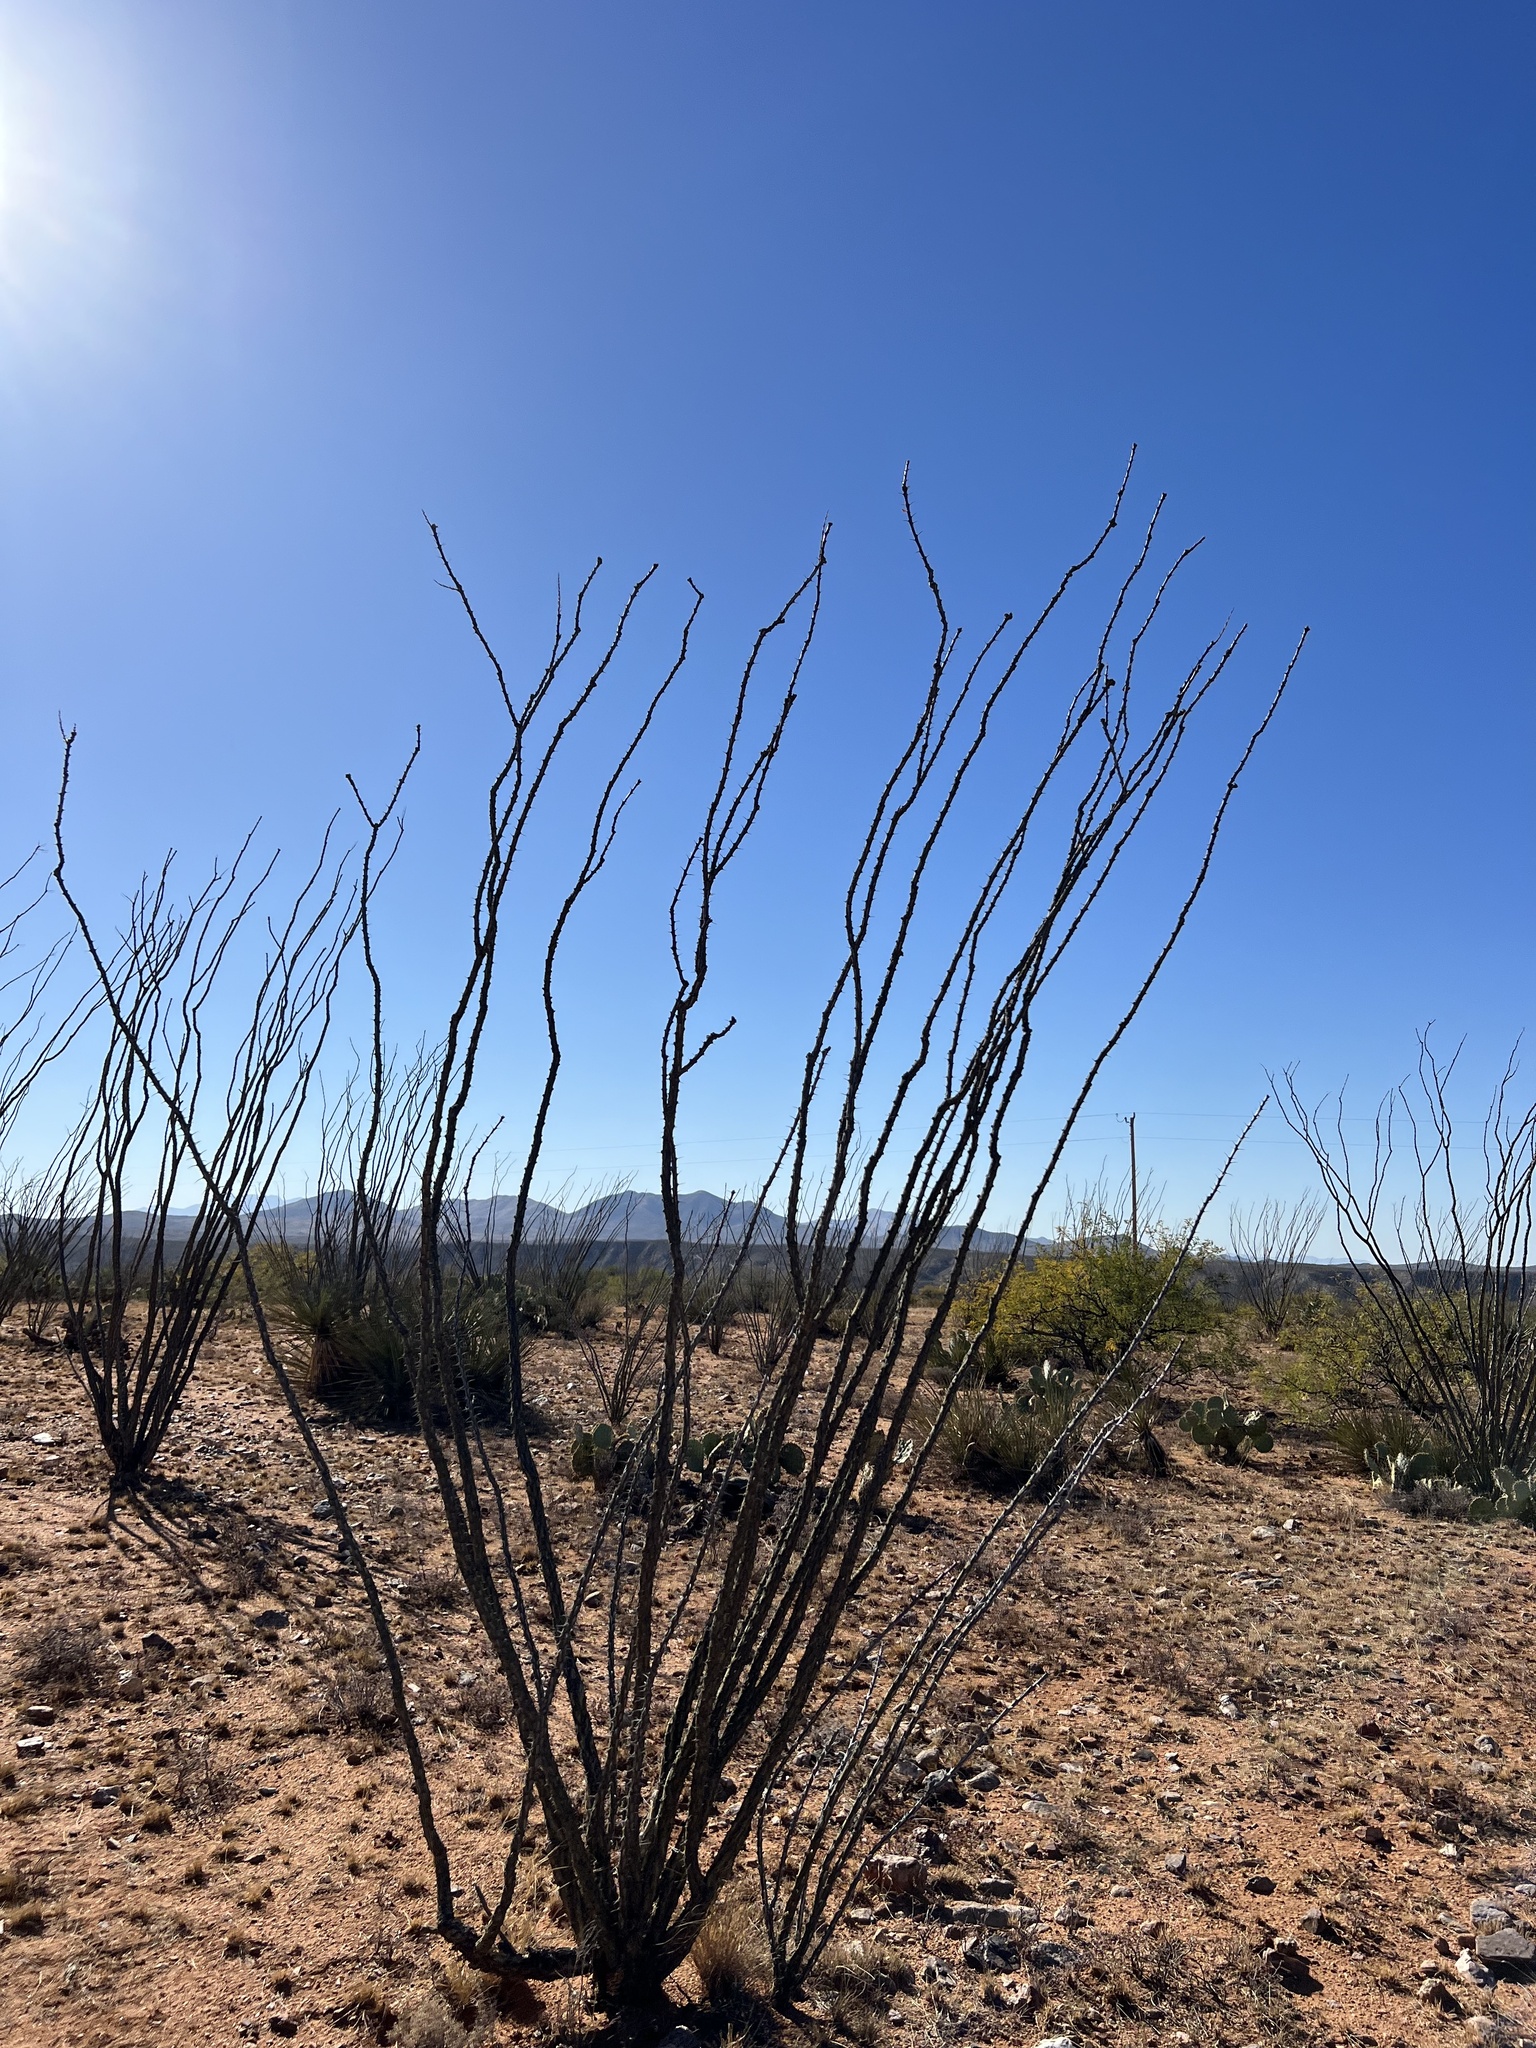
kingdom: Plantae
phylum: Tracheophyta
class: Magnoliopsida
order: Ericales
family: Fouquieriaceae
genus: Fouquieria
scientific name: Fouquieria splendens
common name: Vine-cactus
